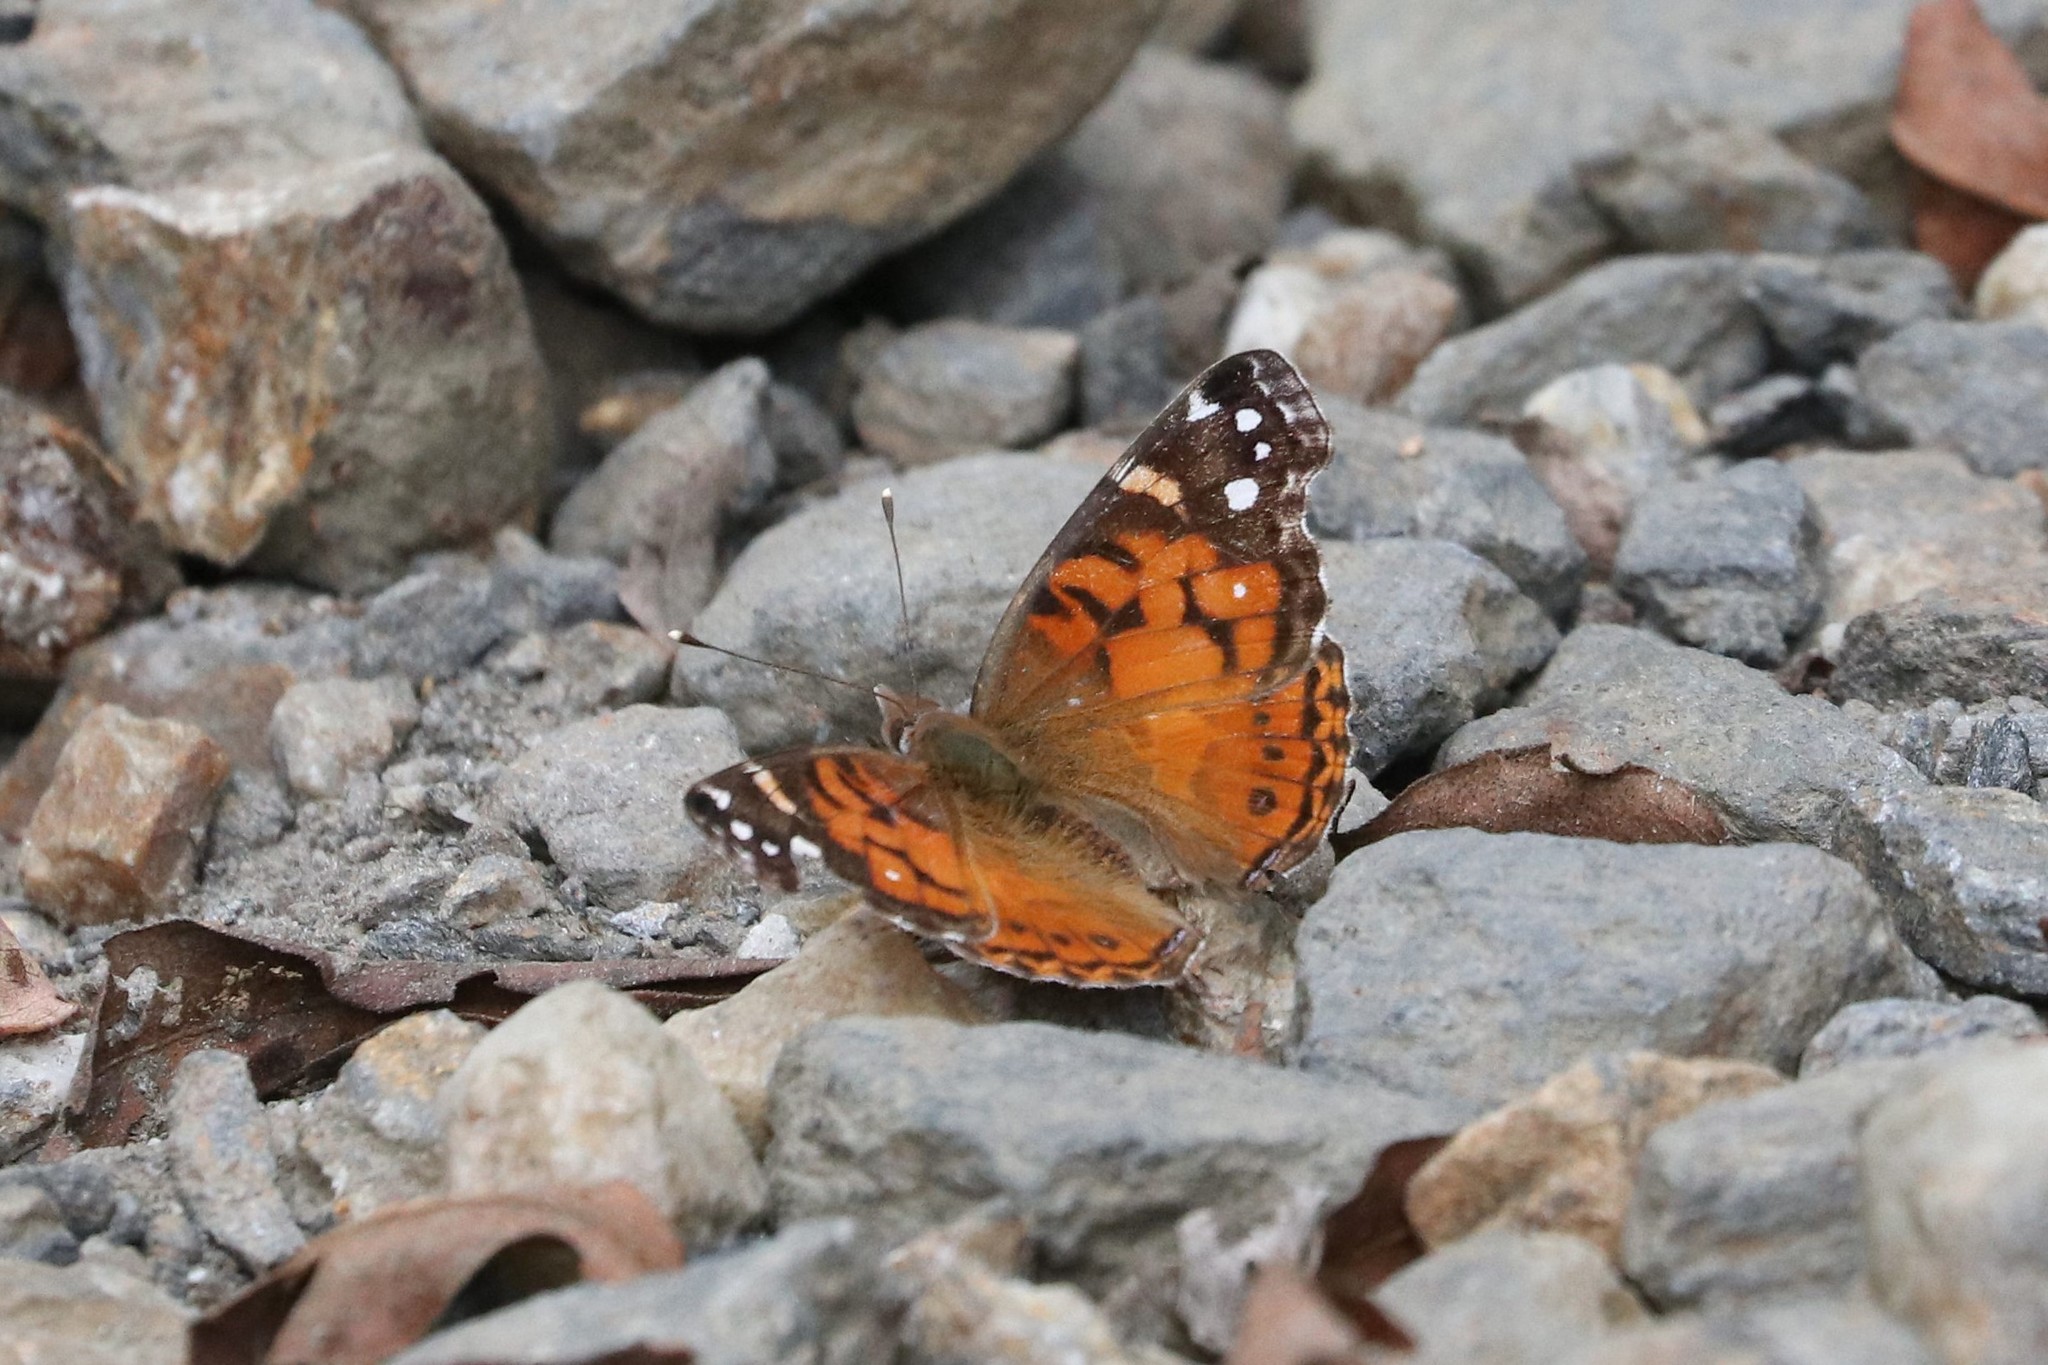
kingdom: Animalia
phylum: Arthropoda
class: Insecta
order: Lepidoptera
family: Nymphalidae
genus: Vanessa
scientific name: Vanessa virginiensis
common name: American lady
